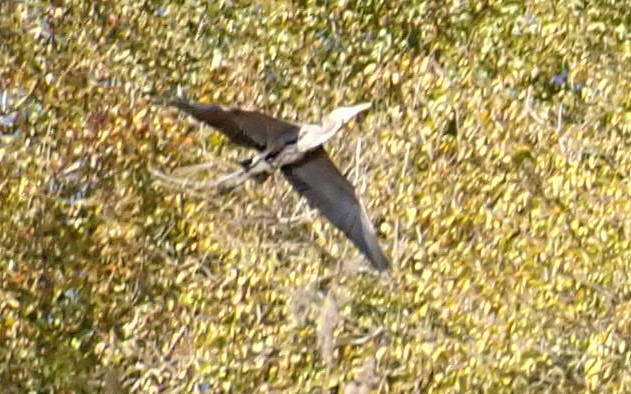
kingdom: Animalia
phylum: Chordata
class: Aves
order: Pelecaniformes
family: Ardeidae
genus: Ardea
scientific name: Ardea herodias
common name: Great blue heron
